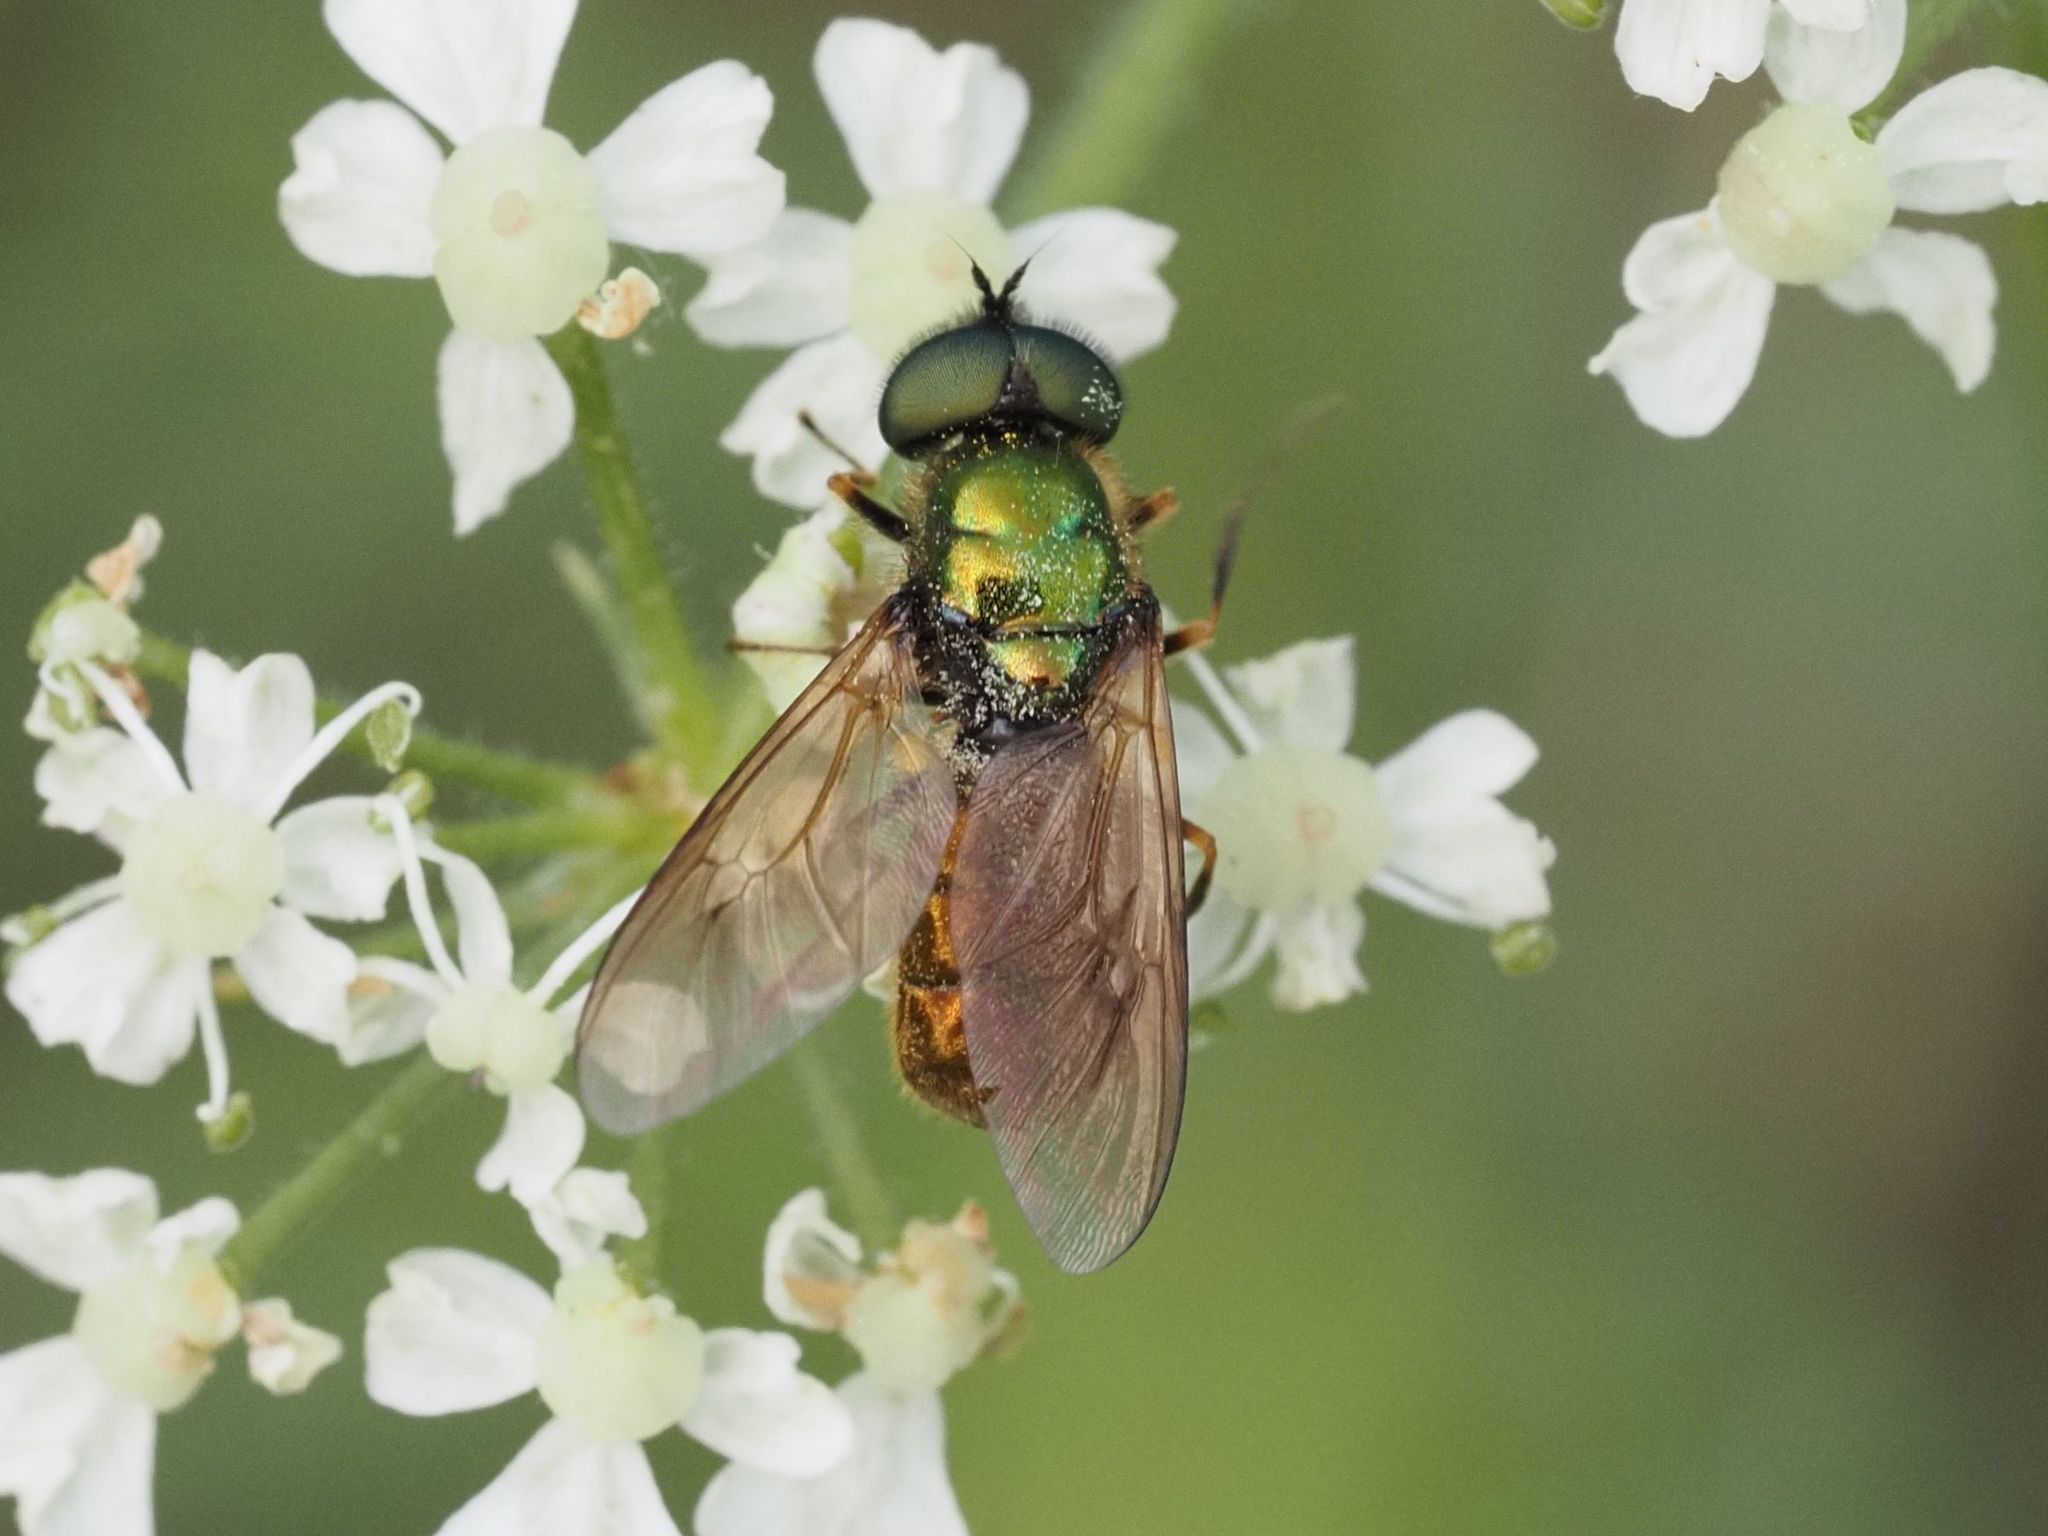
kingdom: Animalia
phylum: Arthropoda
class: Insecta
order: Diptera
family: Stratiomyidae
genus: Chloromyia
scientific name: Chloromyia formosa
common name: Soldier fly
